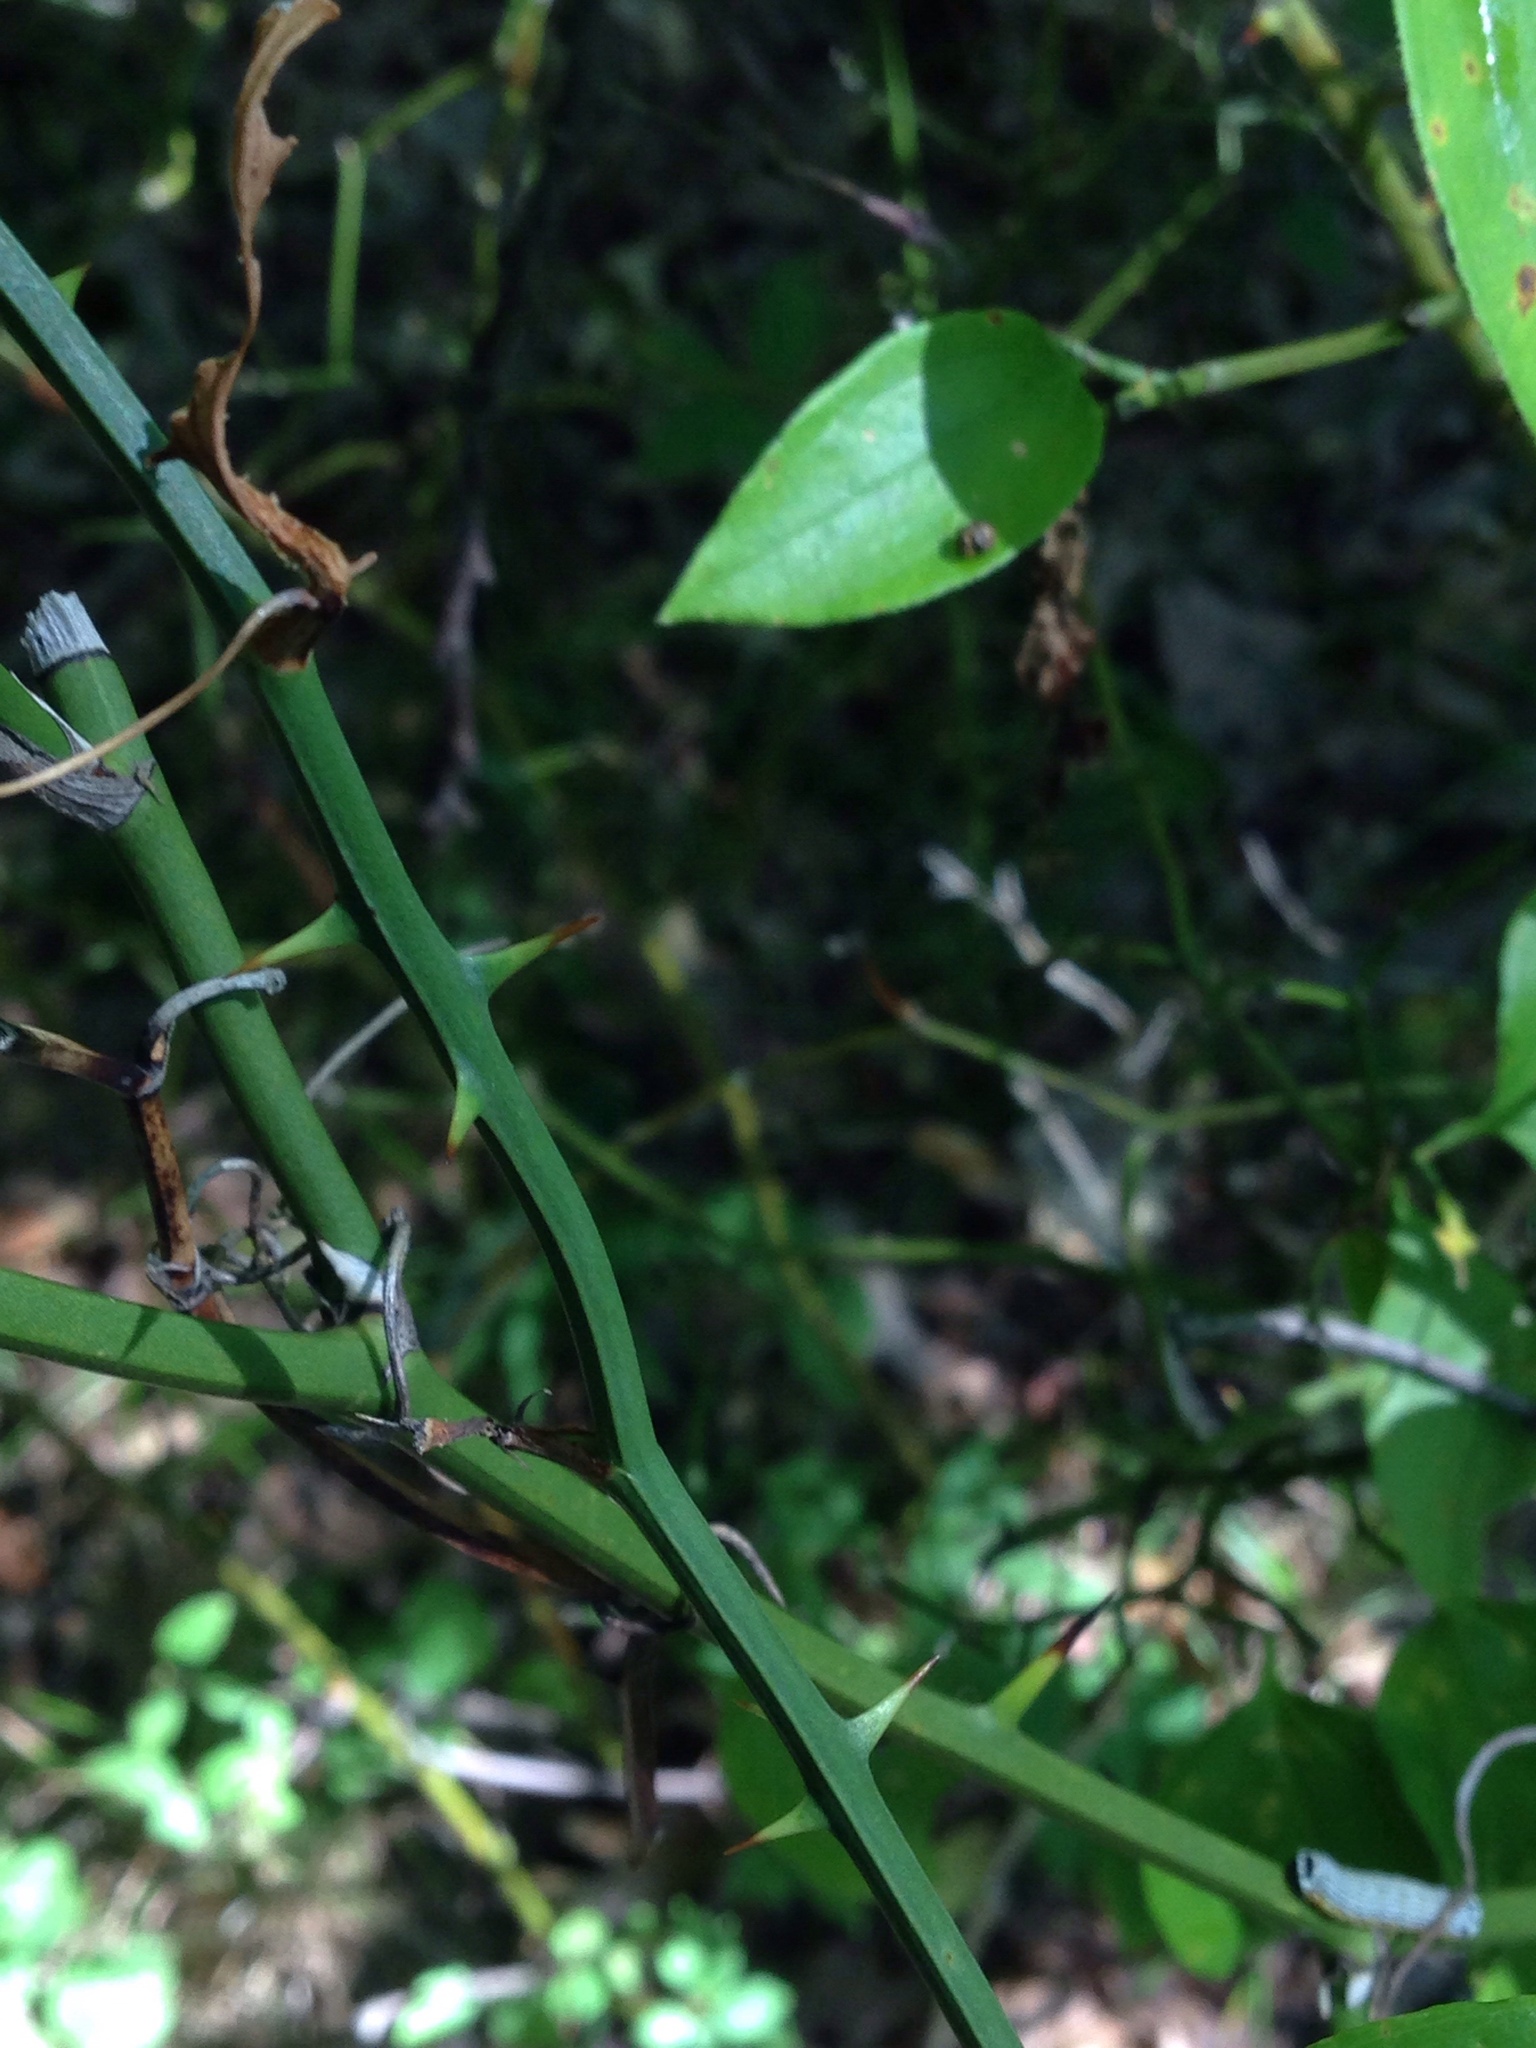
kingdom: Plantae
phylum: Tracheophyta
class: Liliopsida
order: Liliales
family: Smilacaceae
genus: Smilax
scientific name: Smilax rotundifolia
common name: Bullbriar
